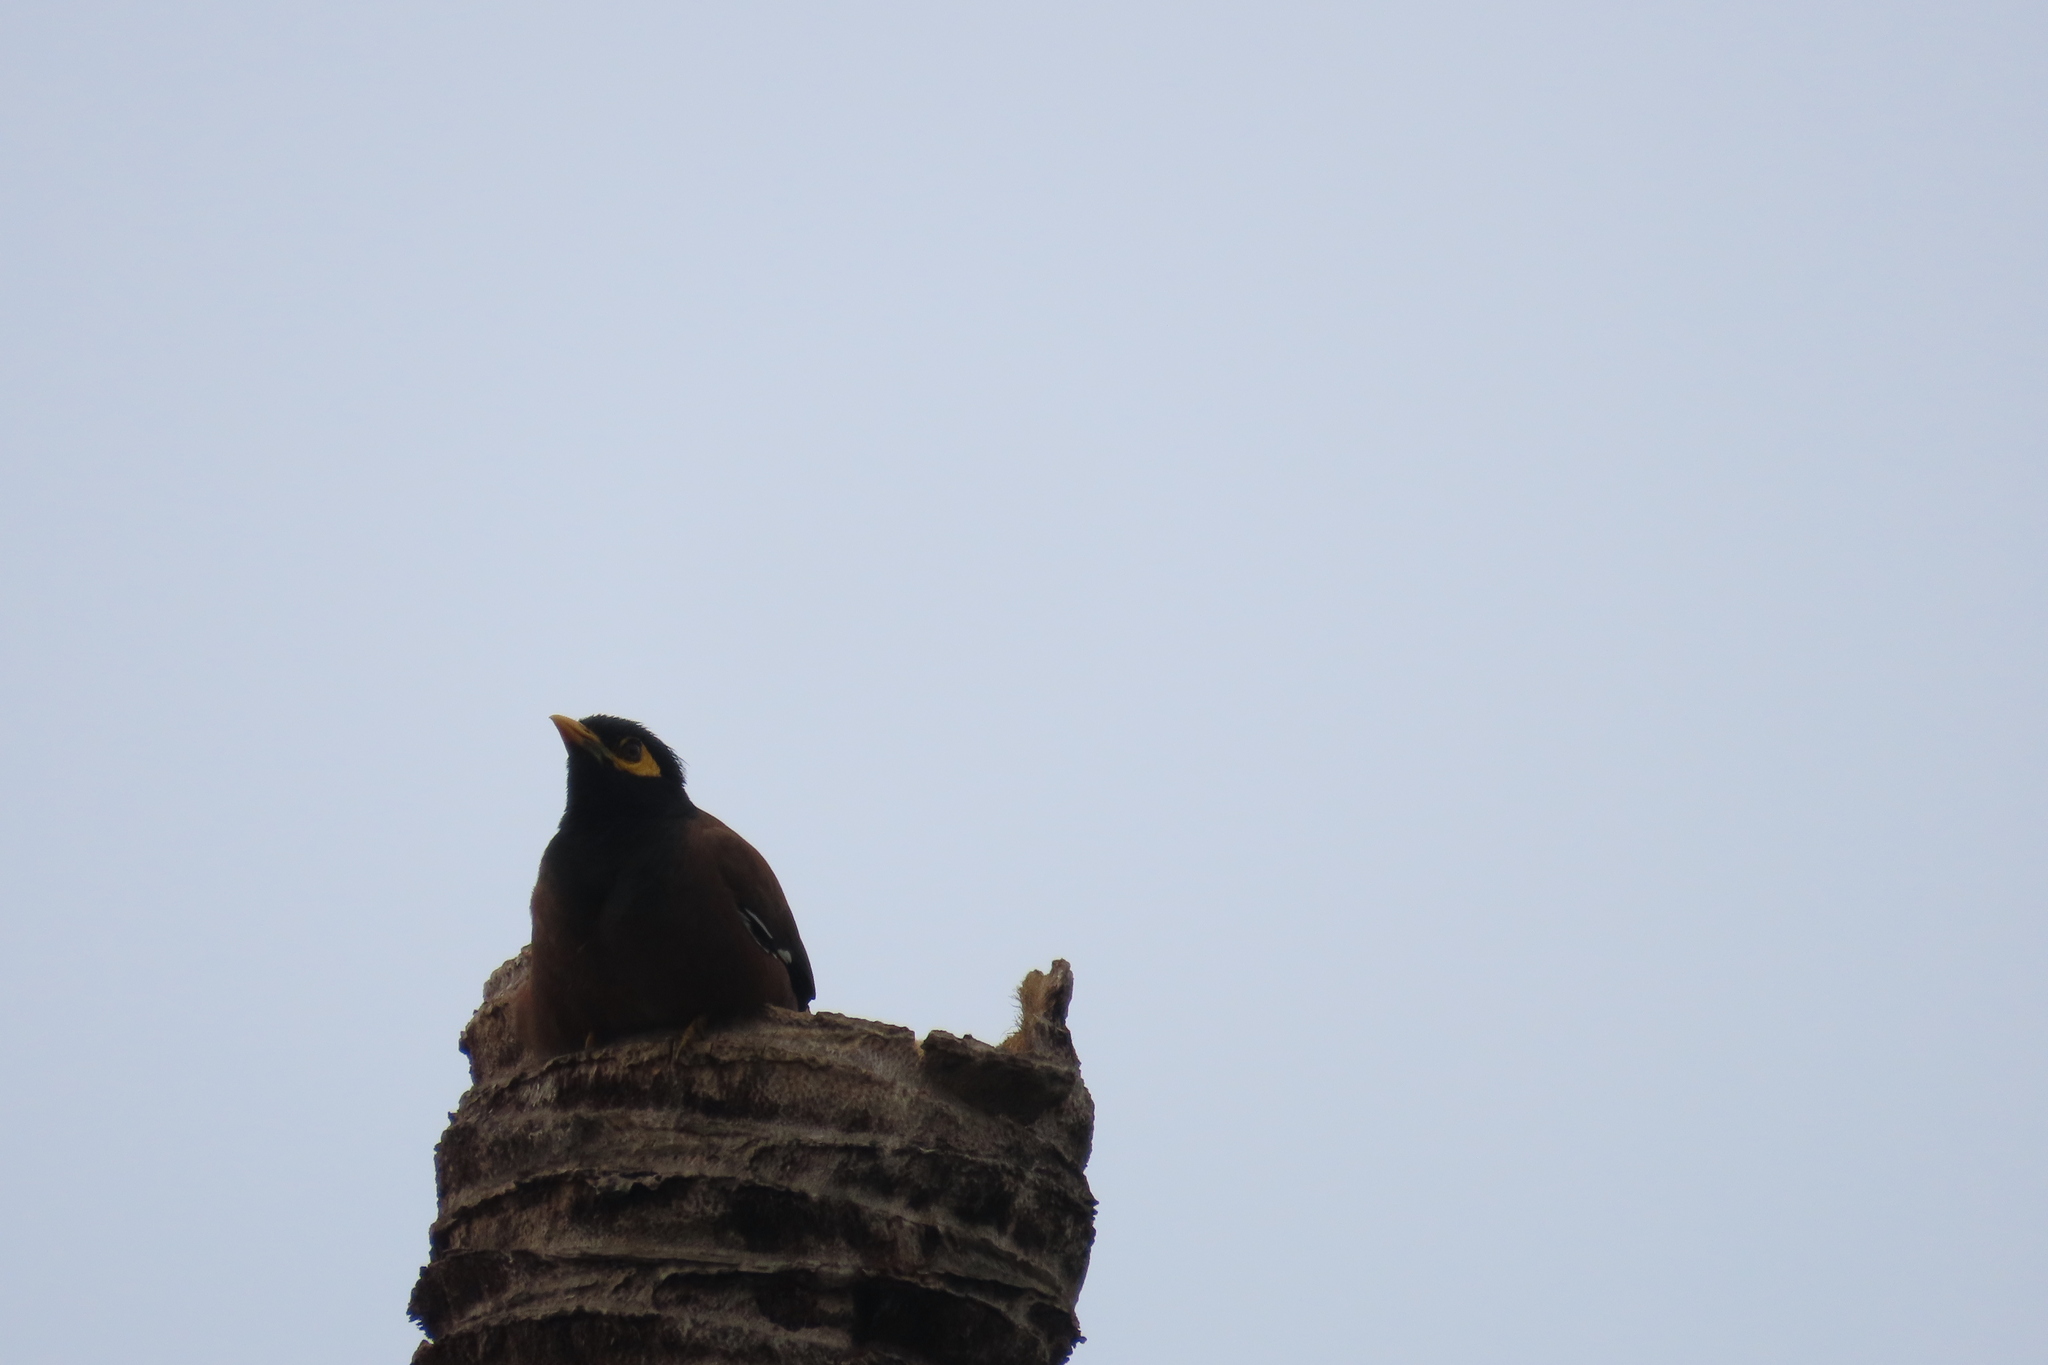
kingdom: Animalia
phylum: Chordata
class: Aves
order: Passeriformes
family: Sturnidae
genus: Acridotheres
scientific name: Acridotheres tristis
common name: Common myna
